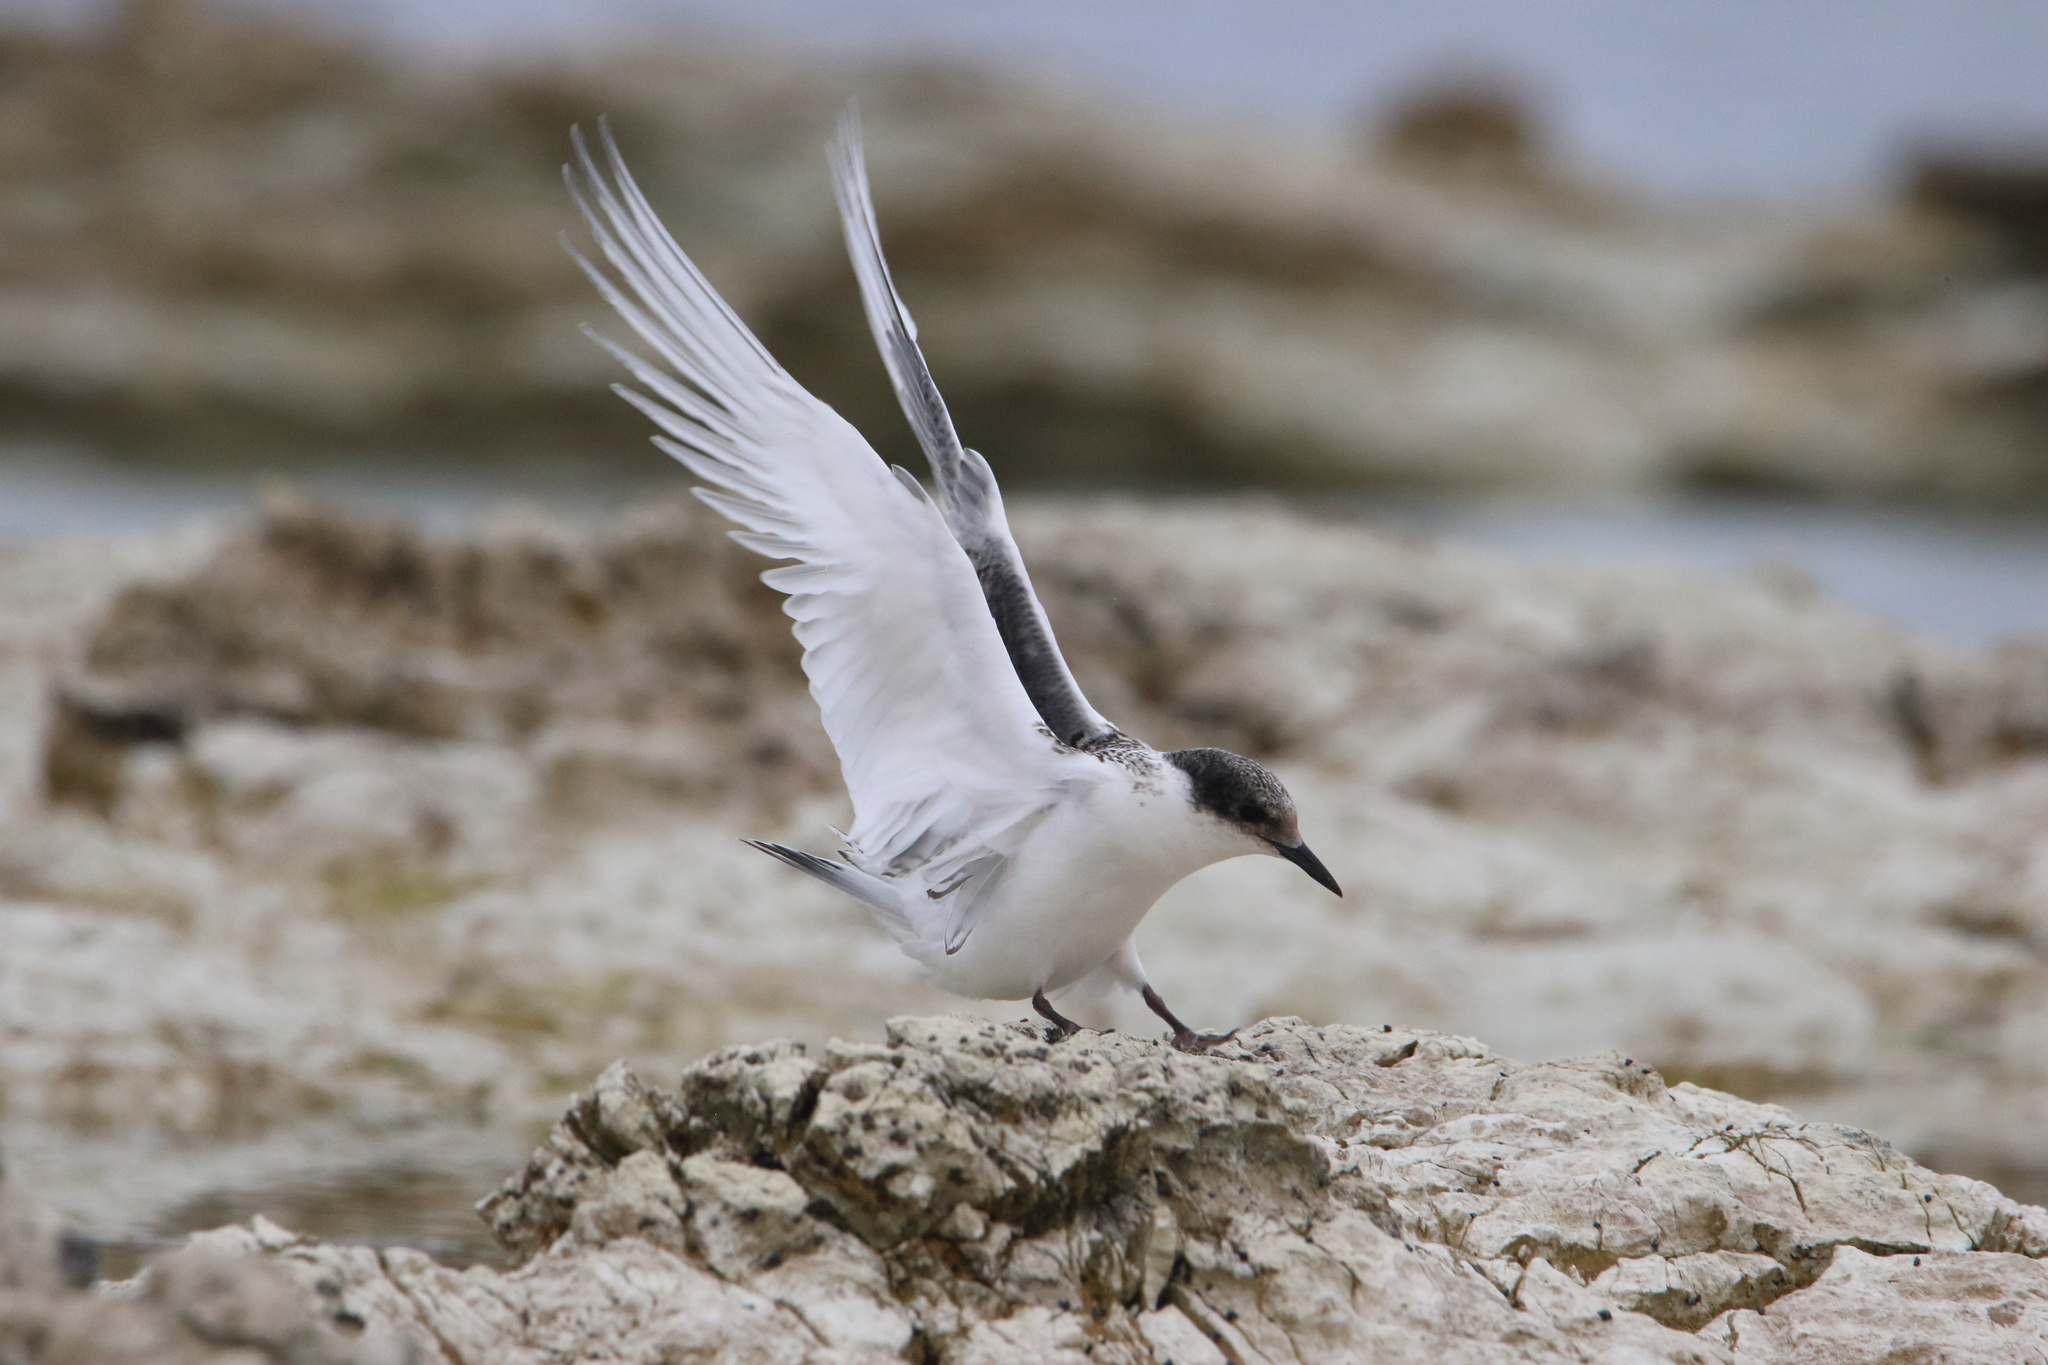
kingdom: Animalia
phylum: Chordata
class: Aves
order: Charadriiformes
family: Laridae
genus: Sterna
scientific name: Sterna striata
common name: White-fronted tern
